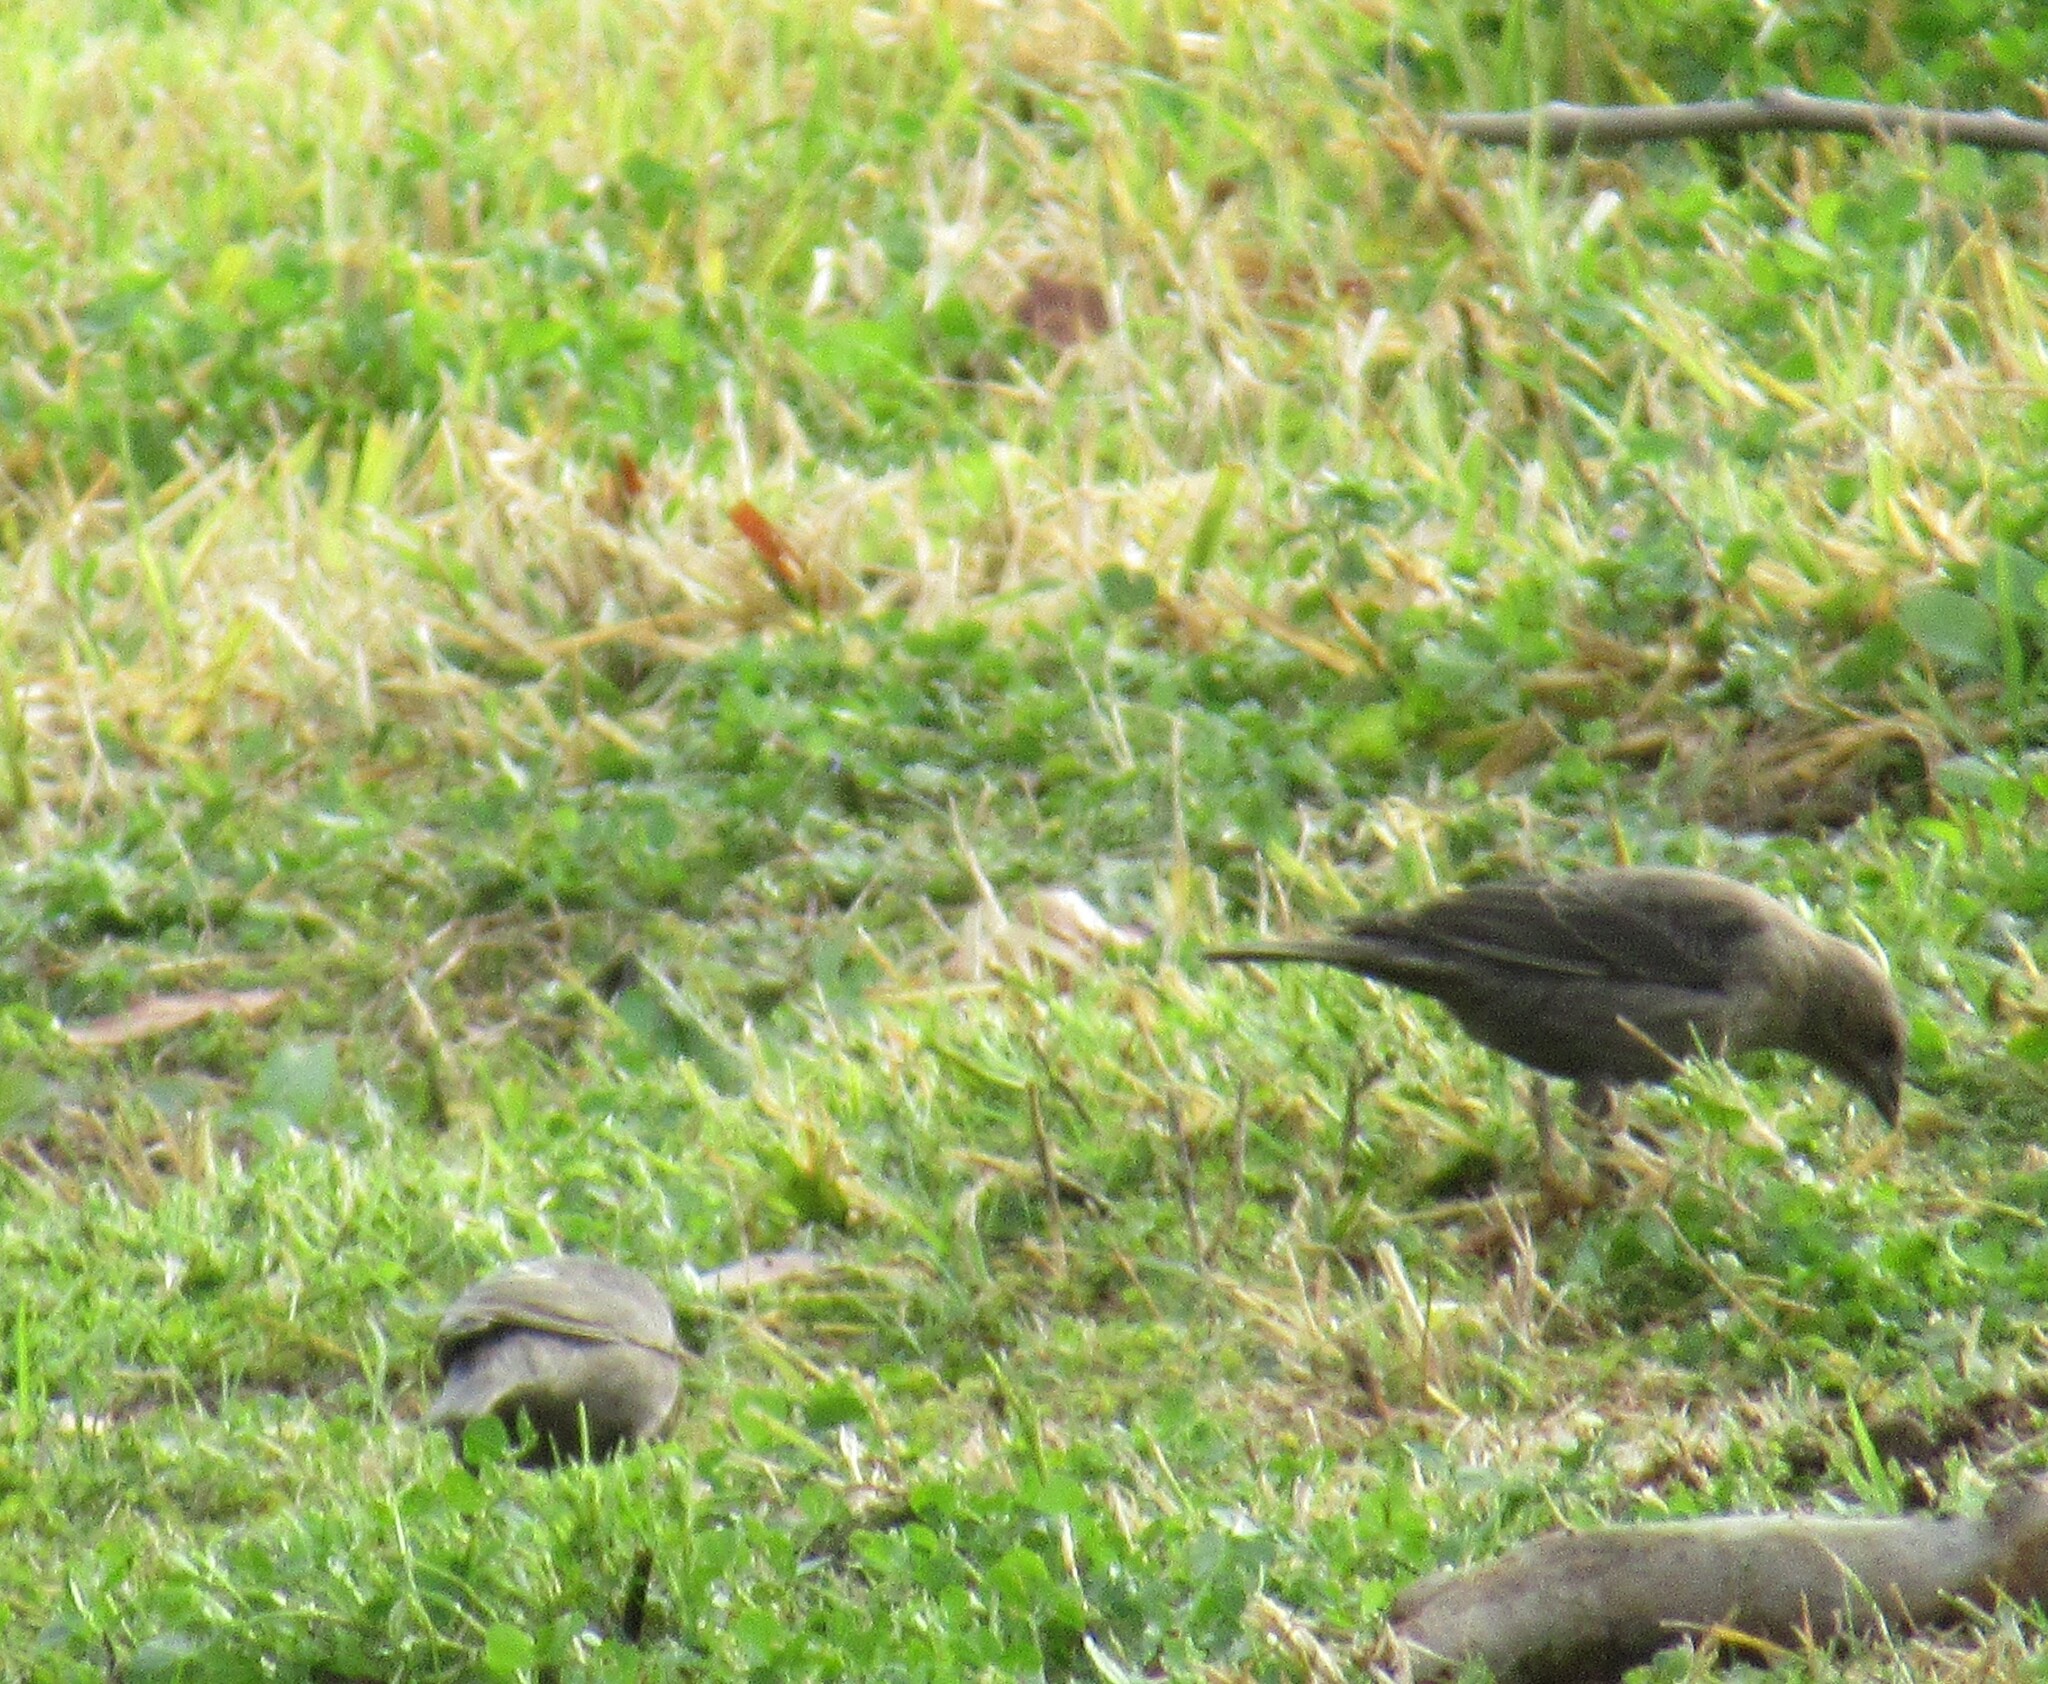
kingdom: Animalia
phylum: Chordata
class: Aves
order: Passeriformes
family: Icteridae
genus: Molothrus
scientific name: Molothrus ater
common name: Brown-headed cowbird
